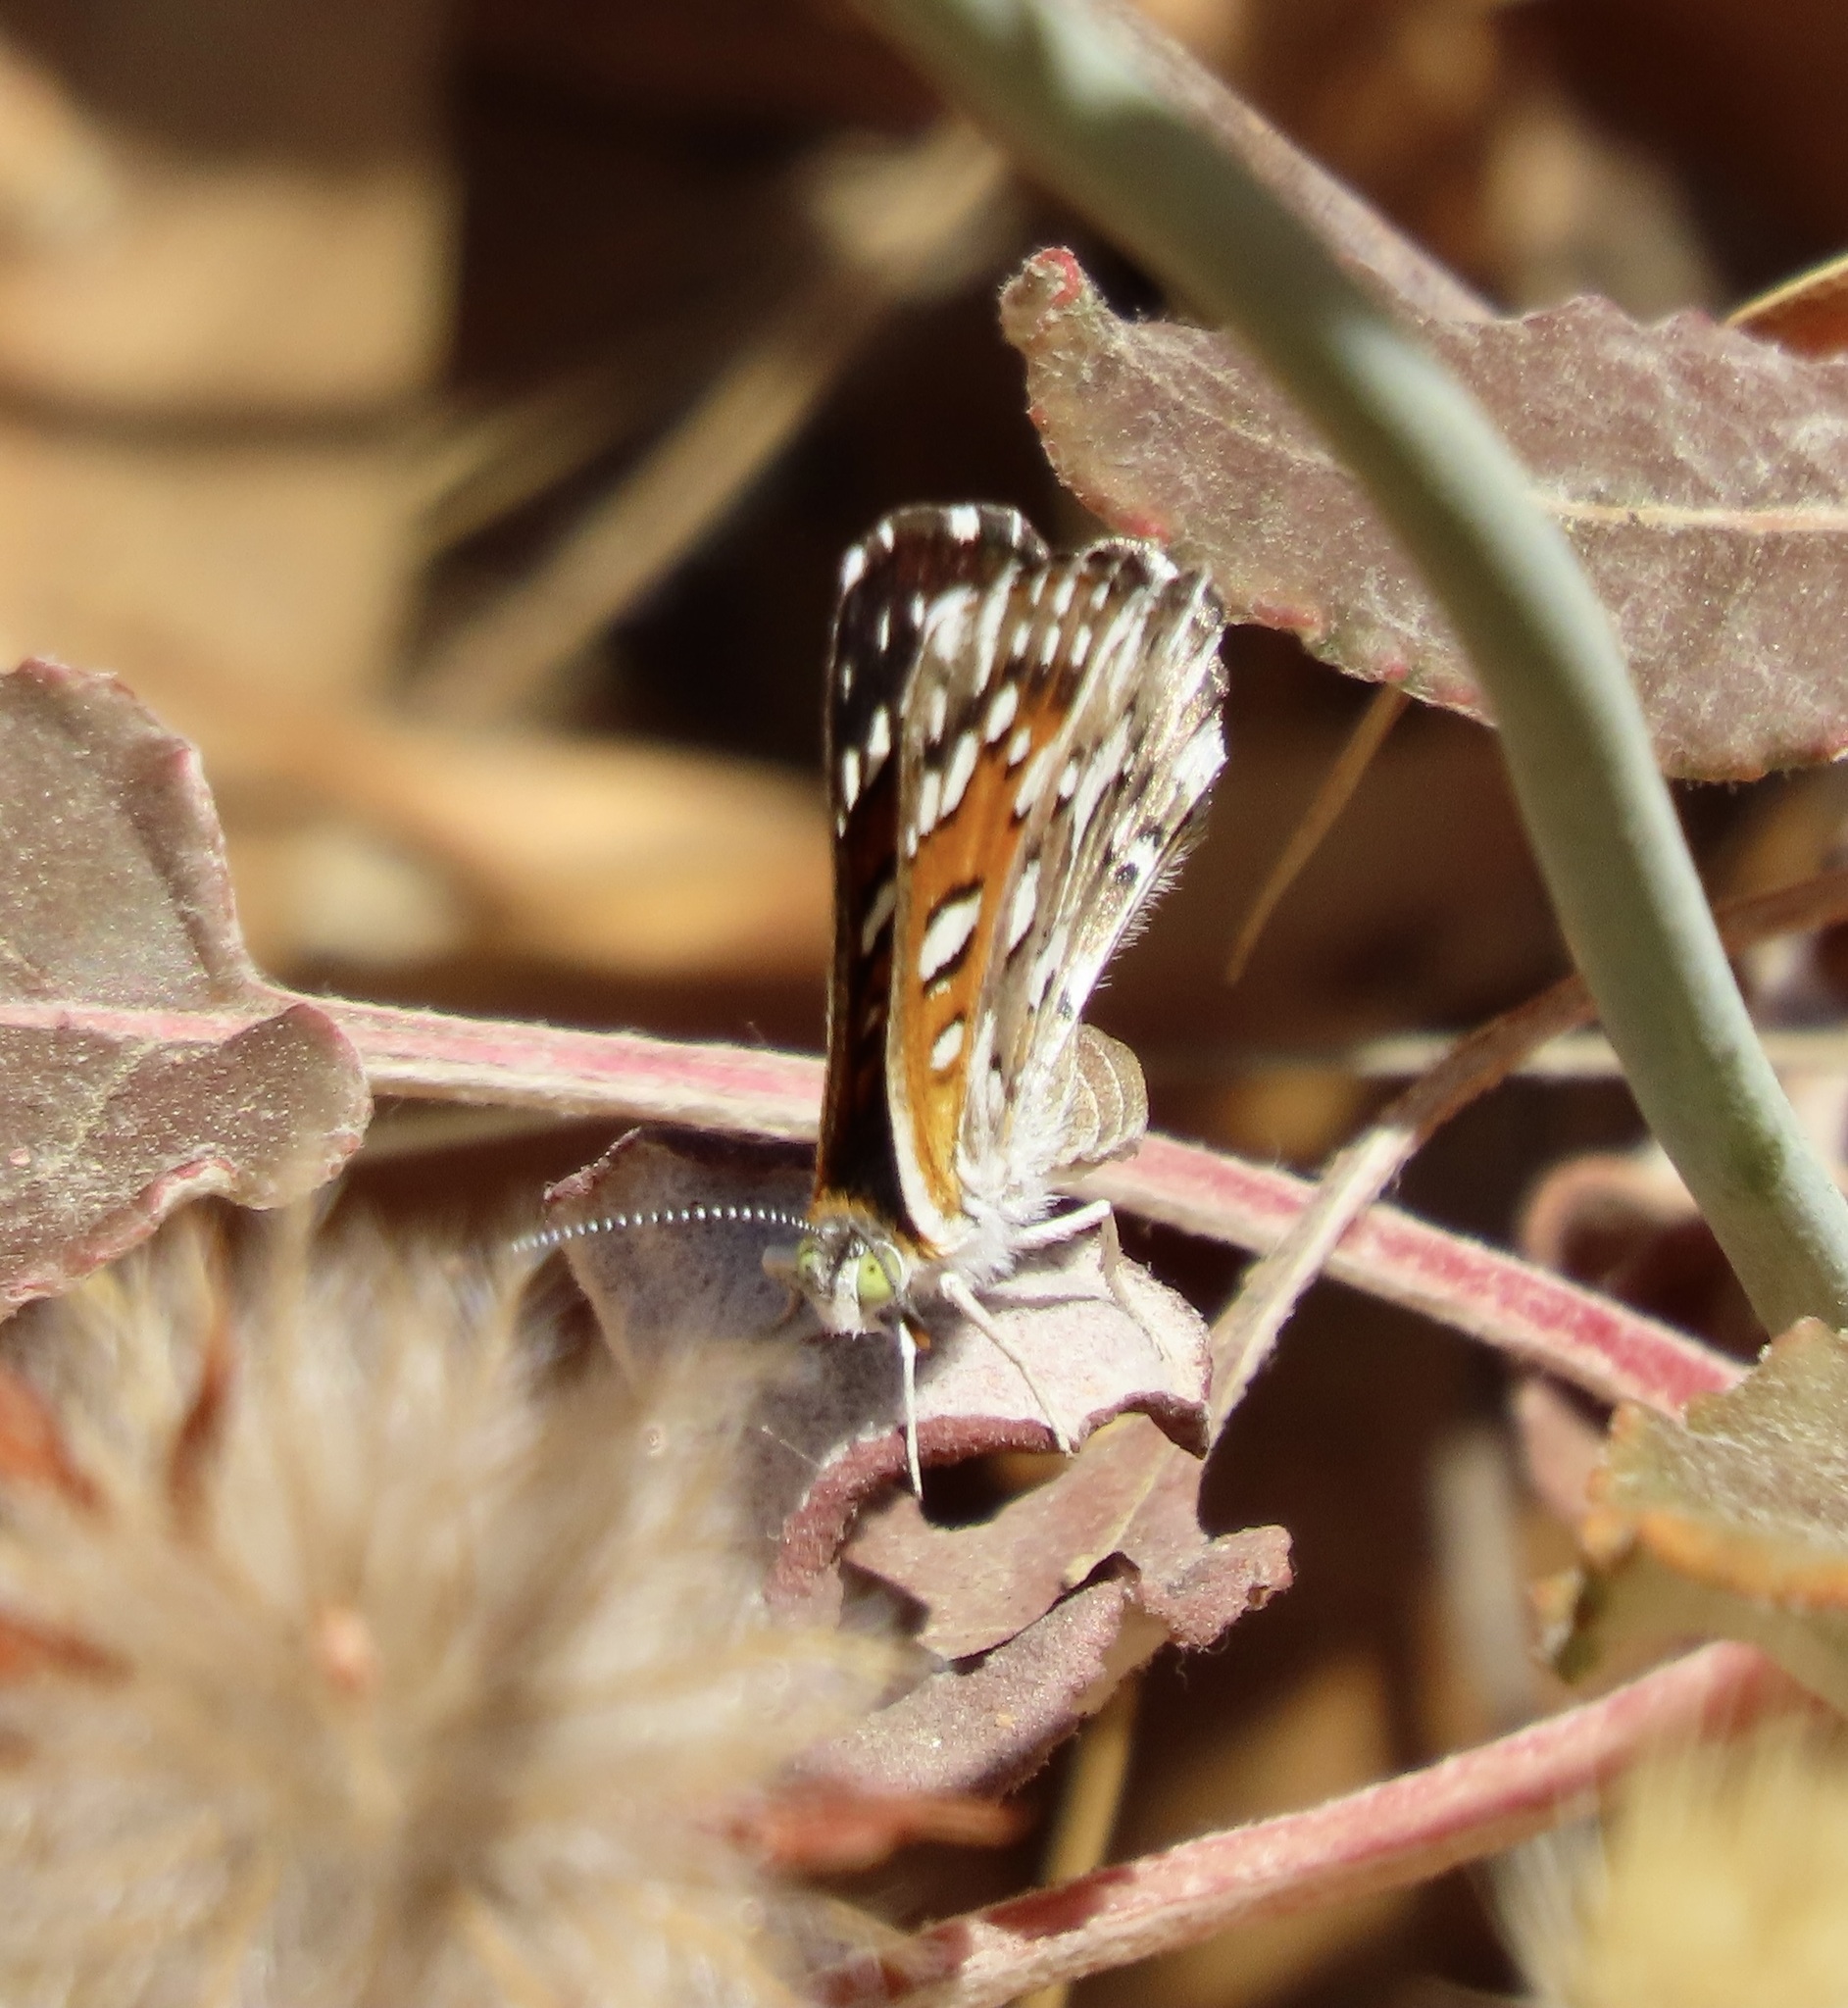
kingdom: Animalia
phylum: Arthropoda
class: Insecta
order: Lepidoptera
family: Riodinidae
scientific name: Riodinidae
